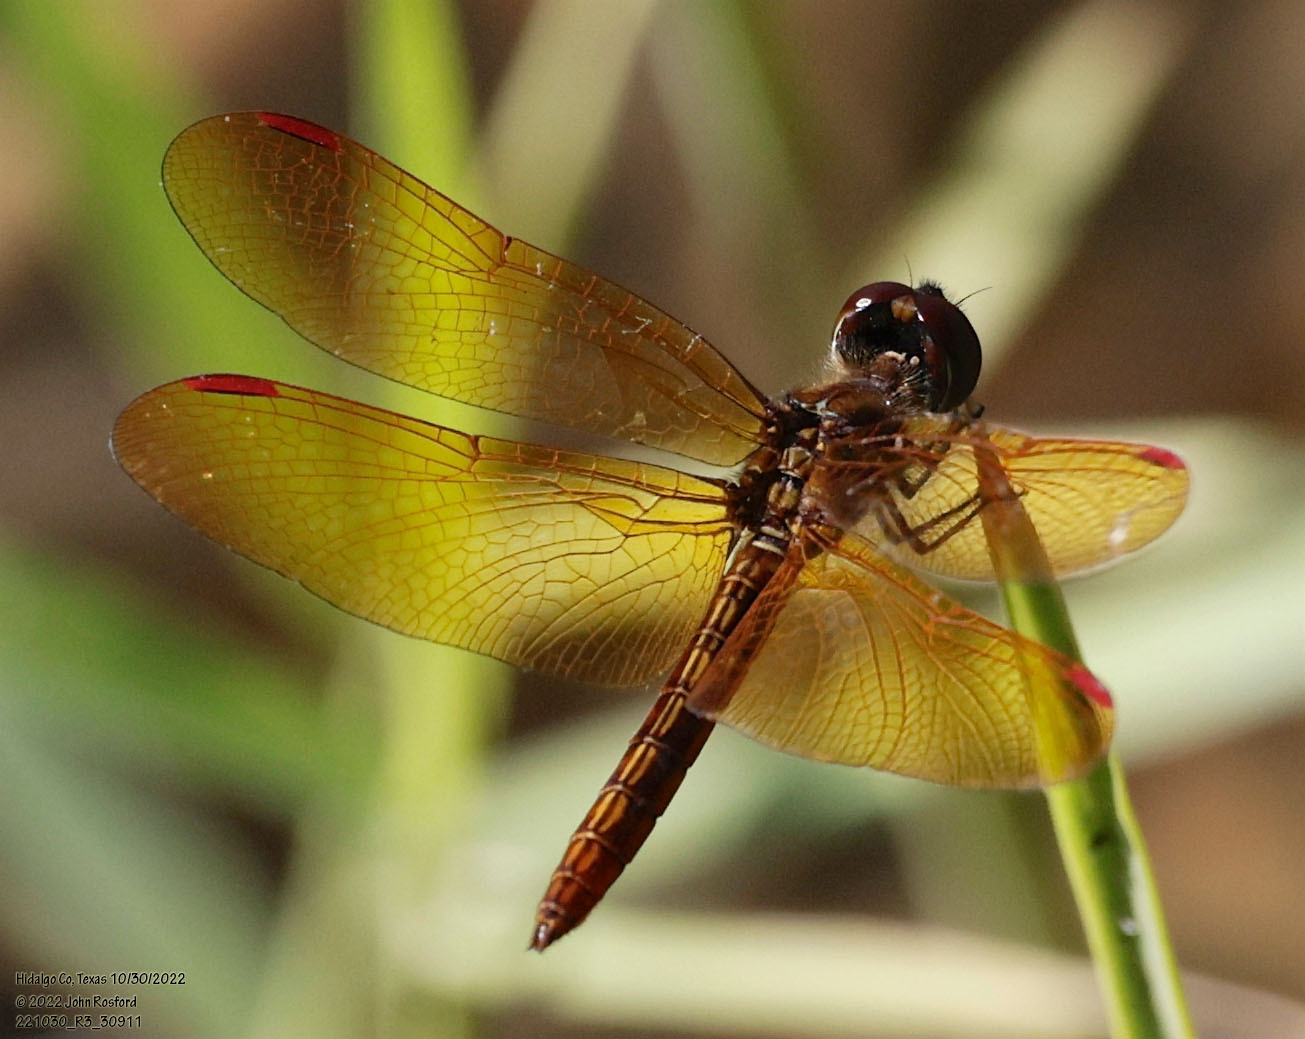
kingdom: Animalia
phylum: Arthropoda
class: Insecta
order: Odonata
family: Libellulidae
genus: Perithemis
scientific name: Perithemis domitia
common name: Slough amberwing
